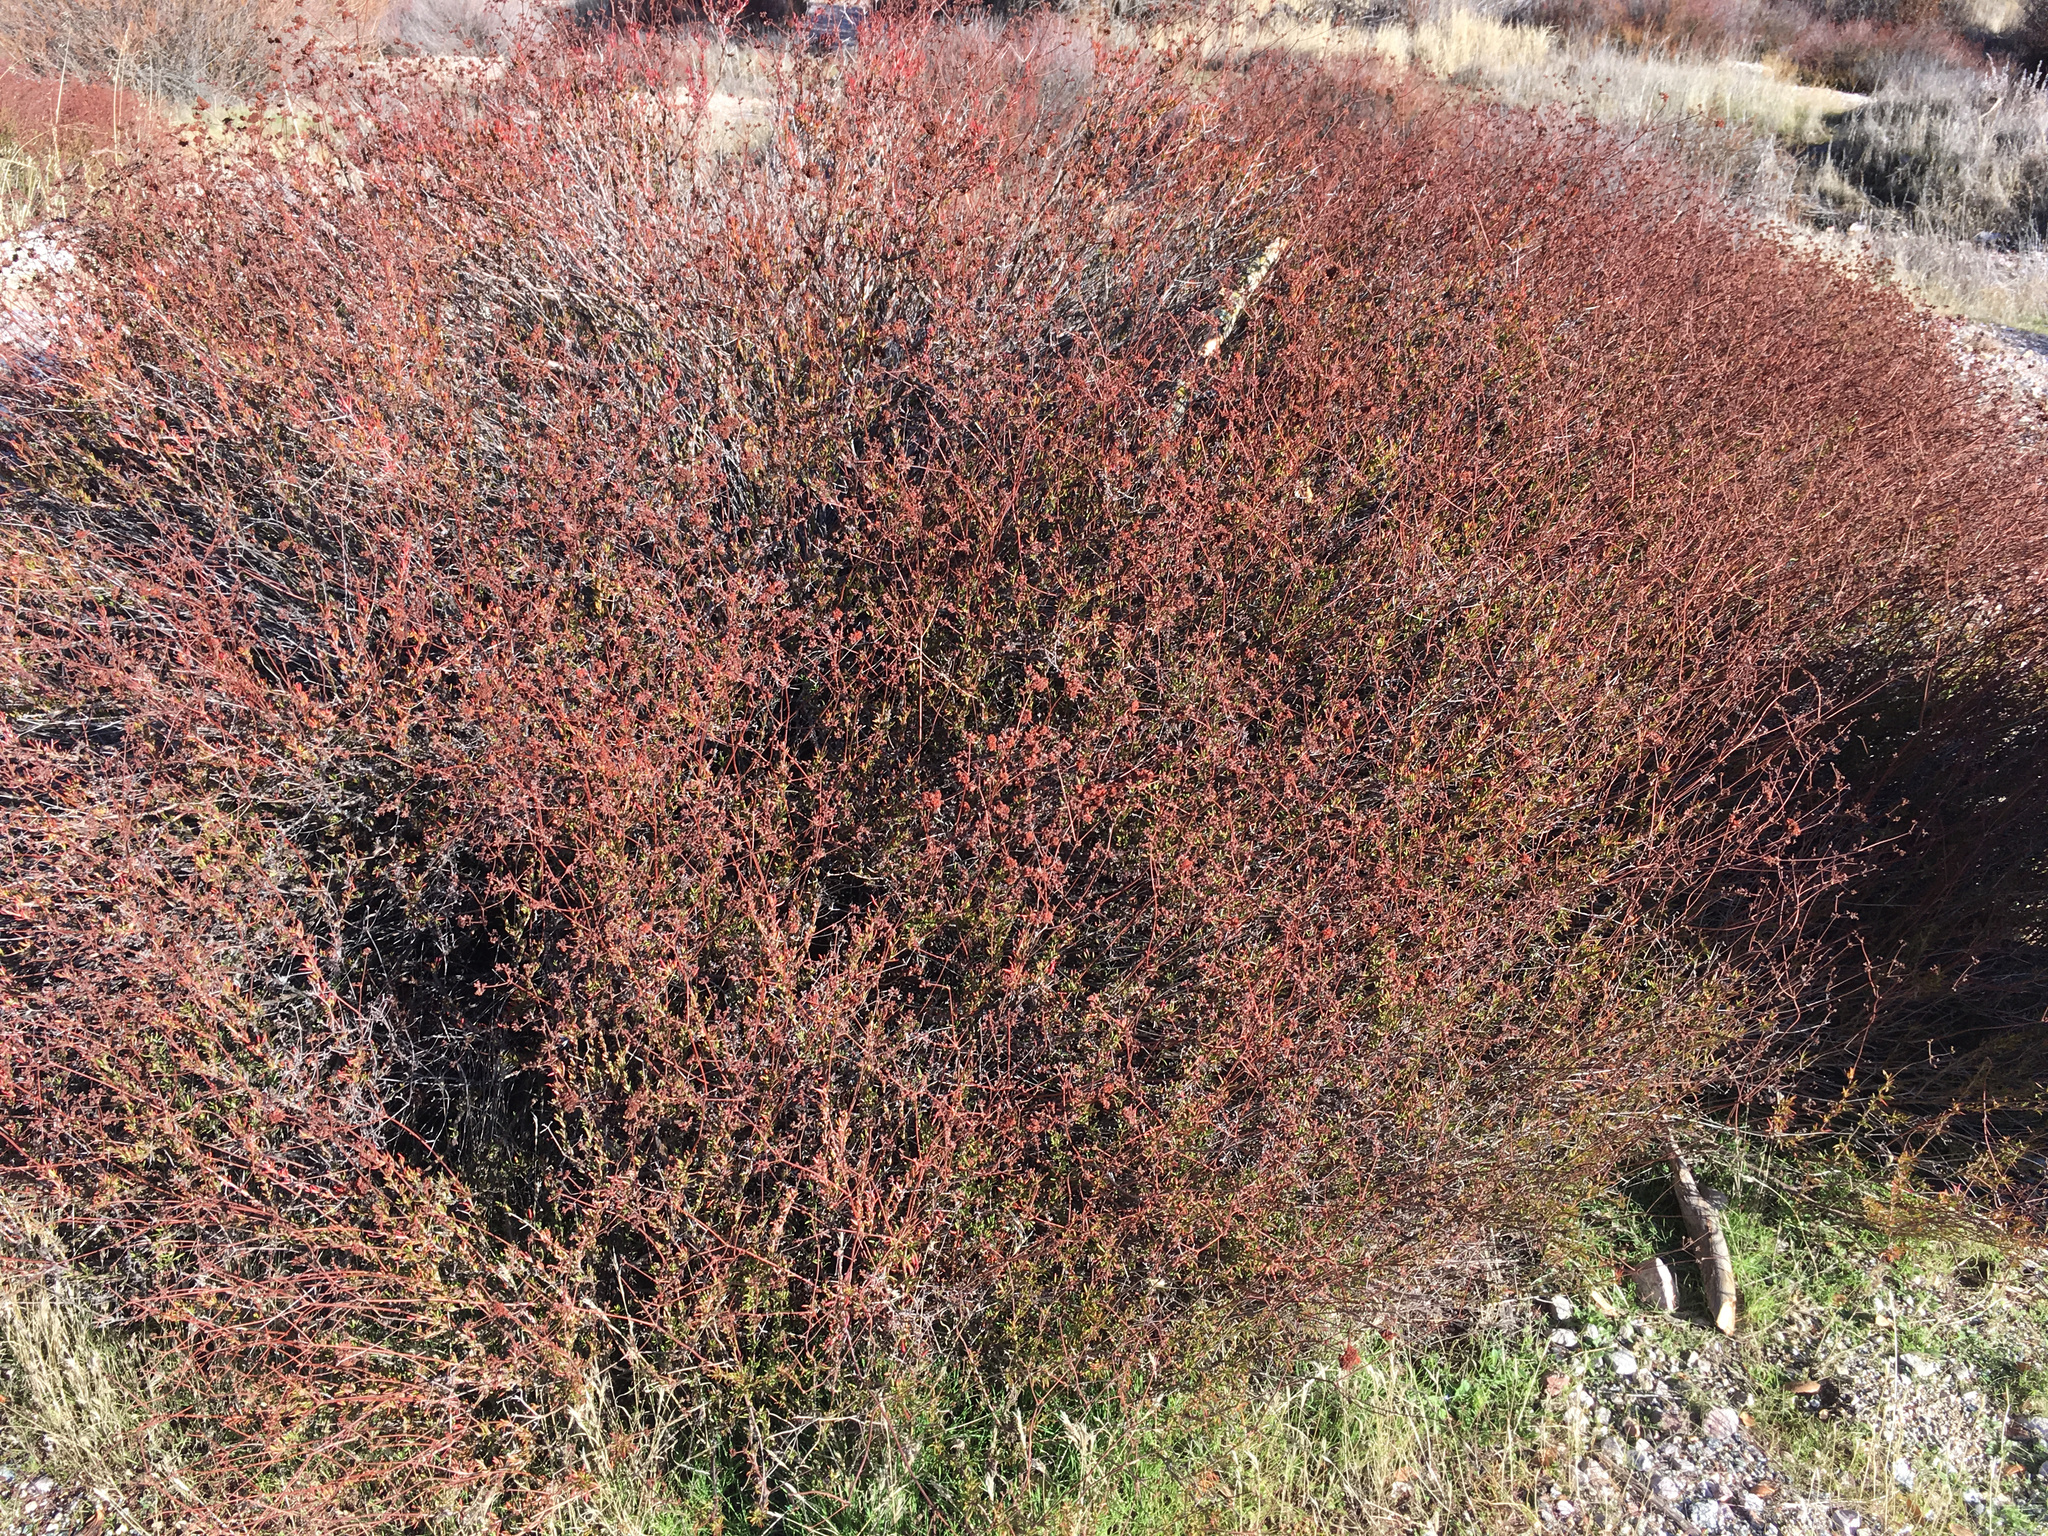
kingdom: Plantae
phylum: Tracheophyta
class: Magnoliopsida
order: Caryophyllales
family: Polygonaceae
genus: Eriogonum
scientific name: Eriogonum fasciculatum
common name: California wild buckwheat
